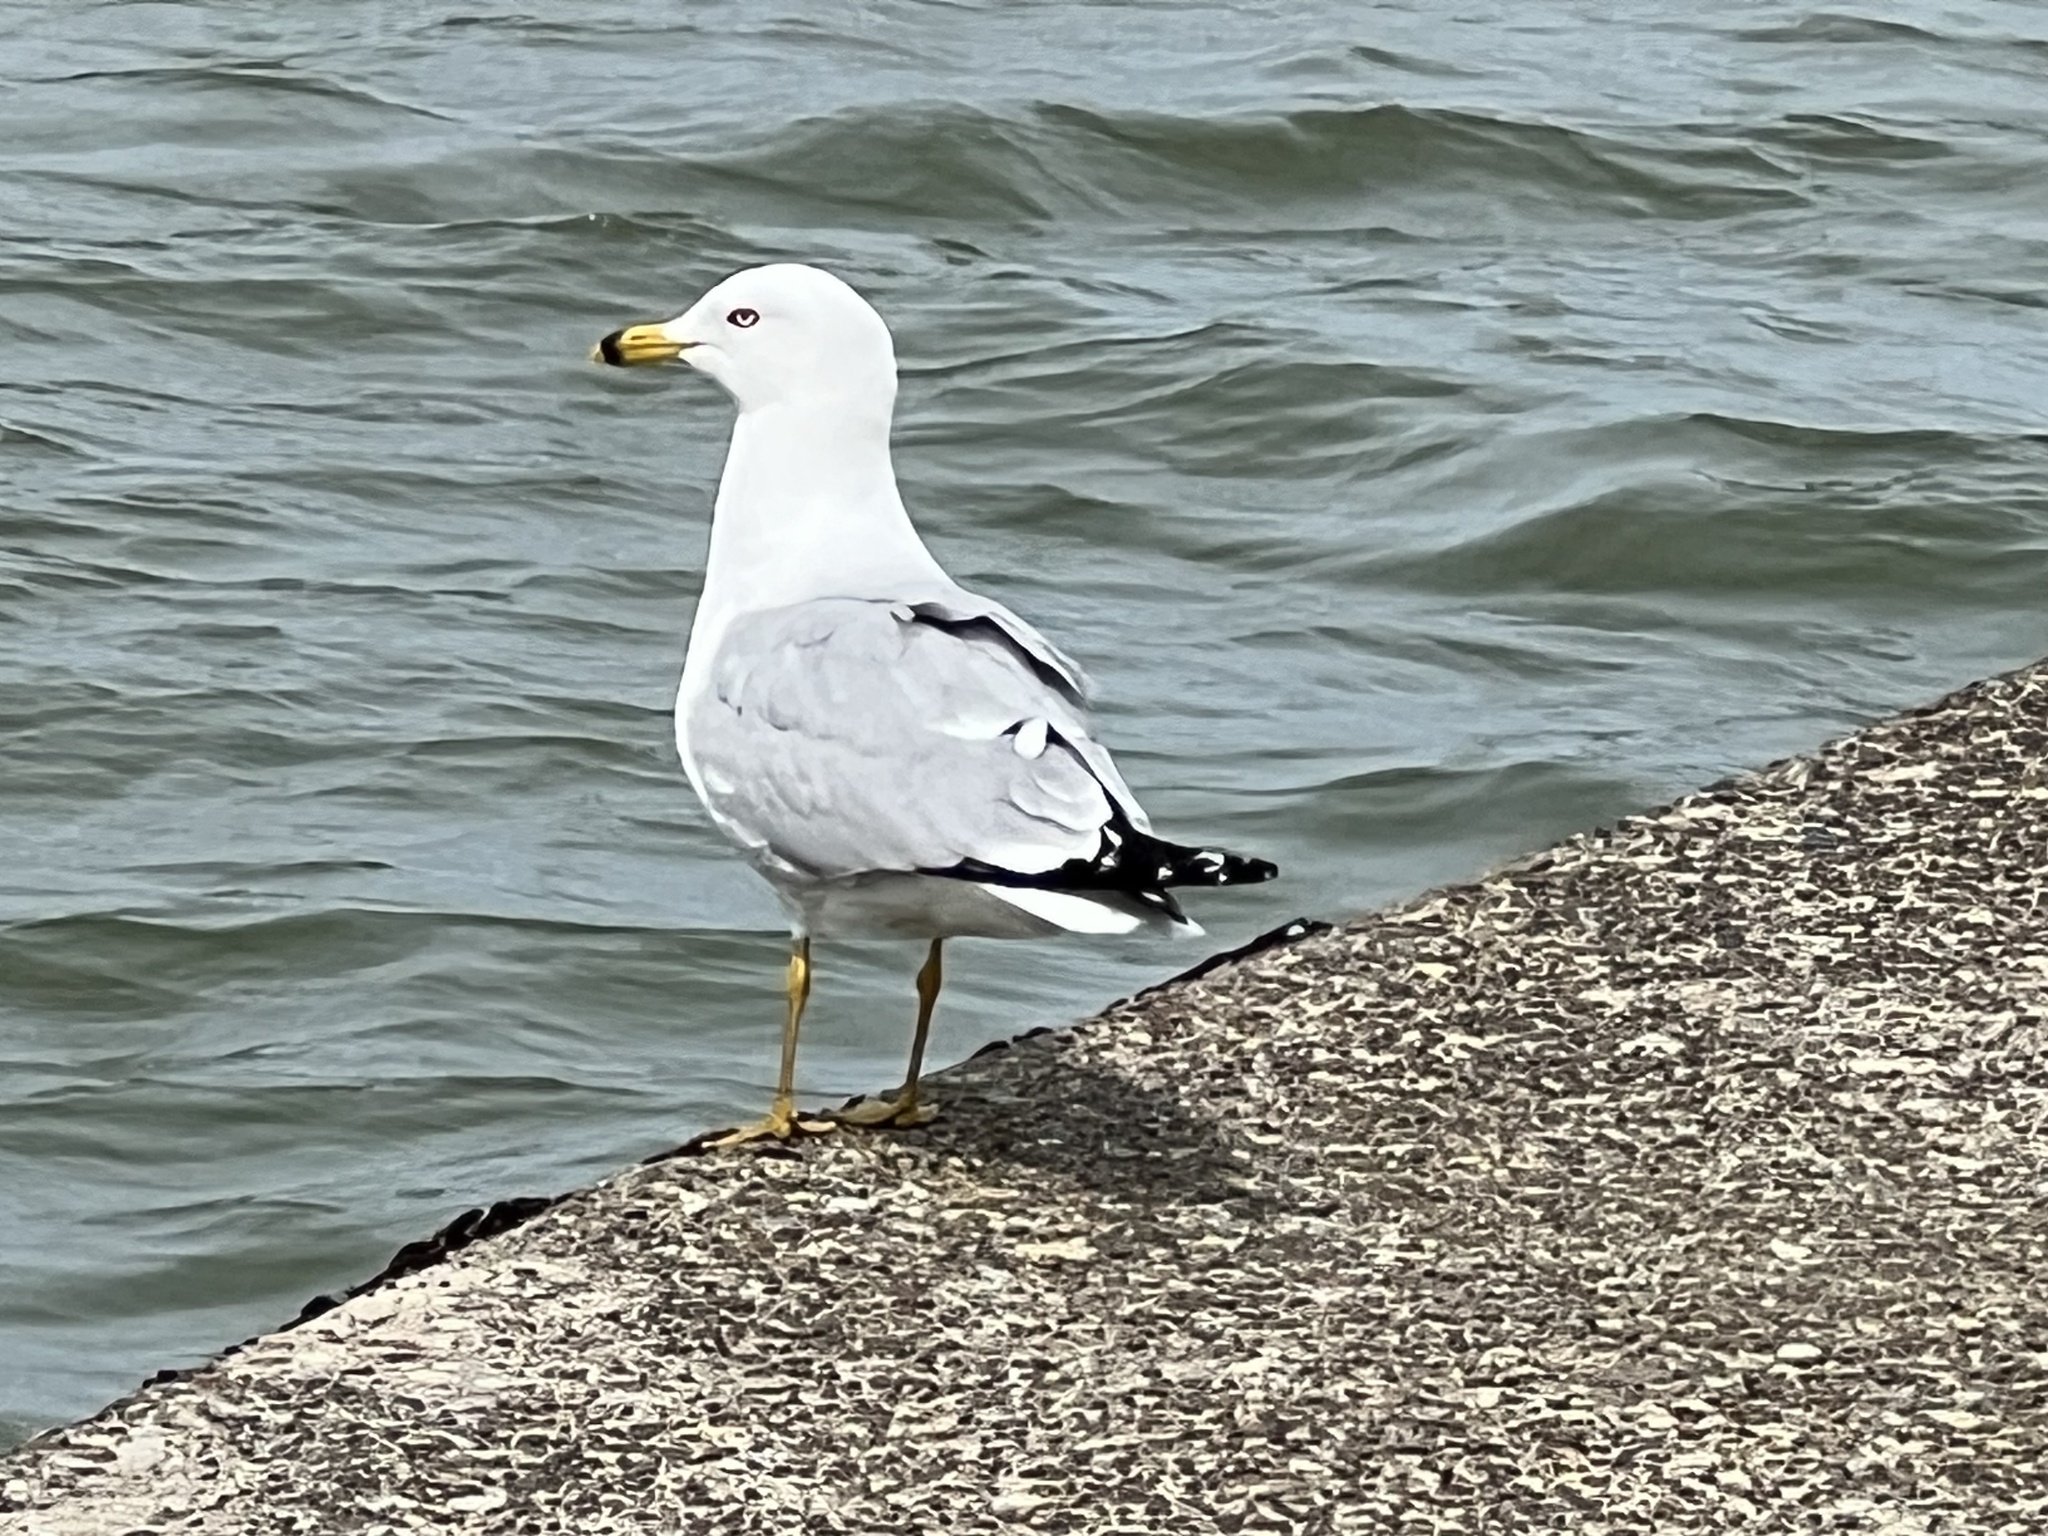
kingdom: Animalia
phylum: Chordata
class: Aves
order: Charadriiformes
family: Laridae
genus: Larus
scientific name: Larus delawarensis
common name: Ring-billed gull
